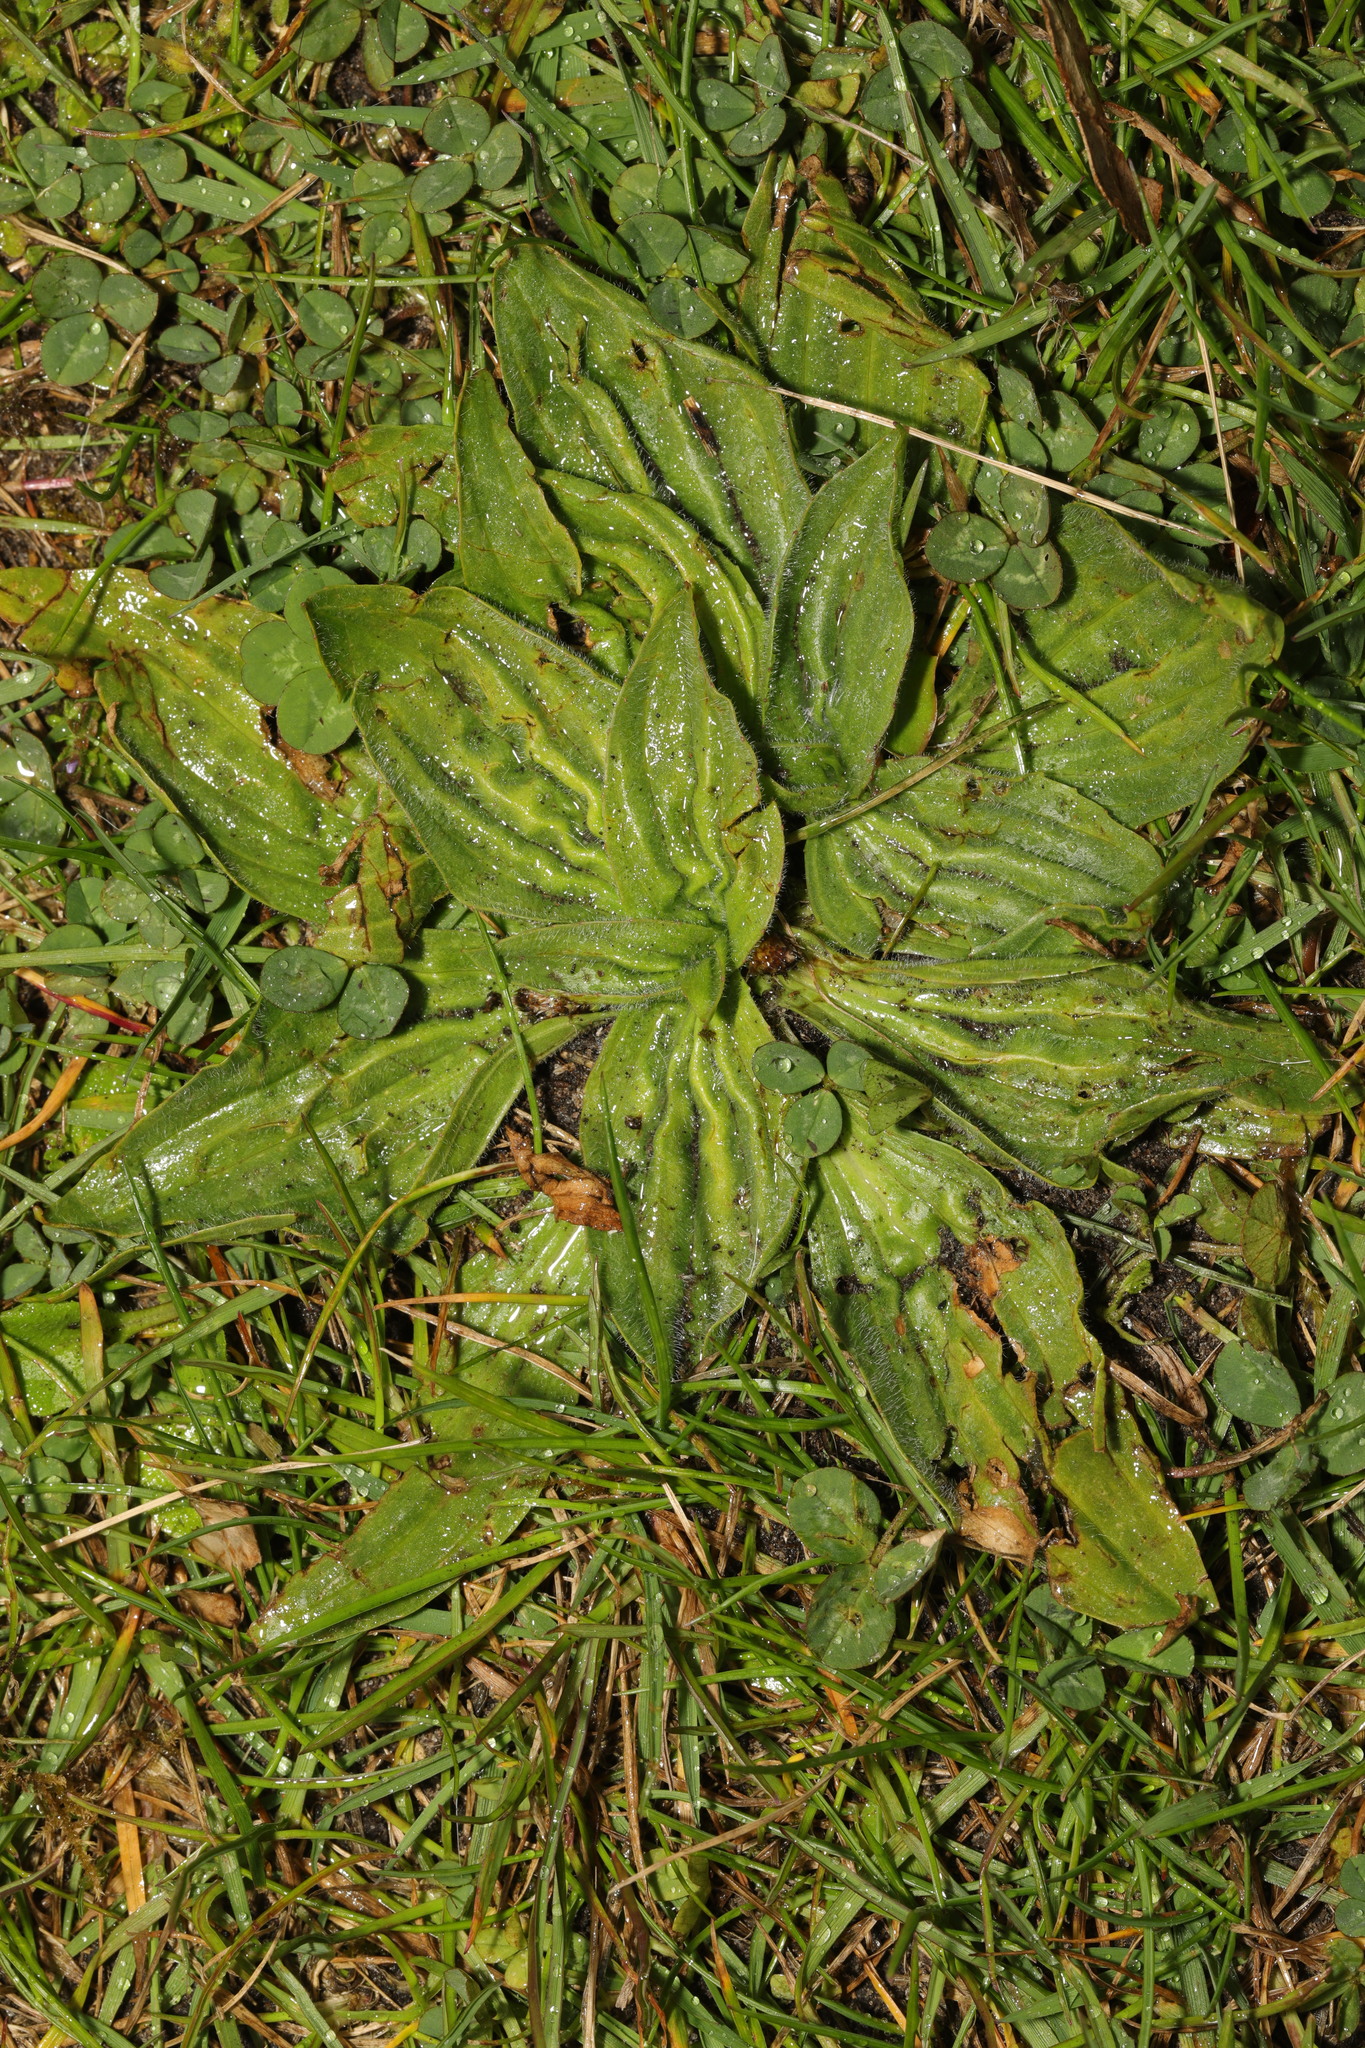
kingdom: Plantae
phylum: Tracheophyta
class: Magnoliopsida
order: Lamiales
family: Plantaginaceae
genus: Plantago
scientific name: Plantago media
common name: Hoary plantain
